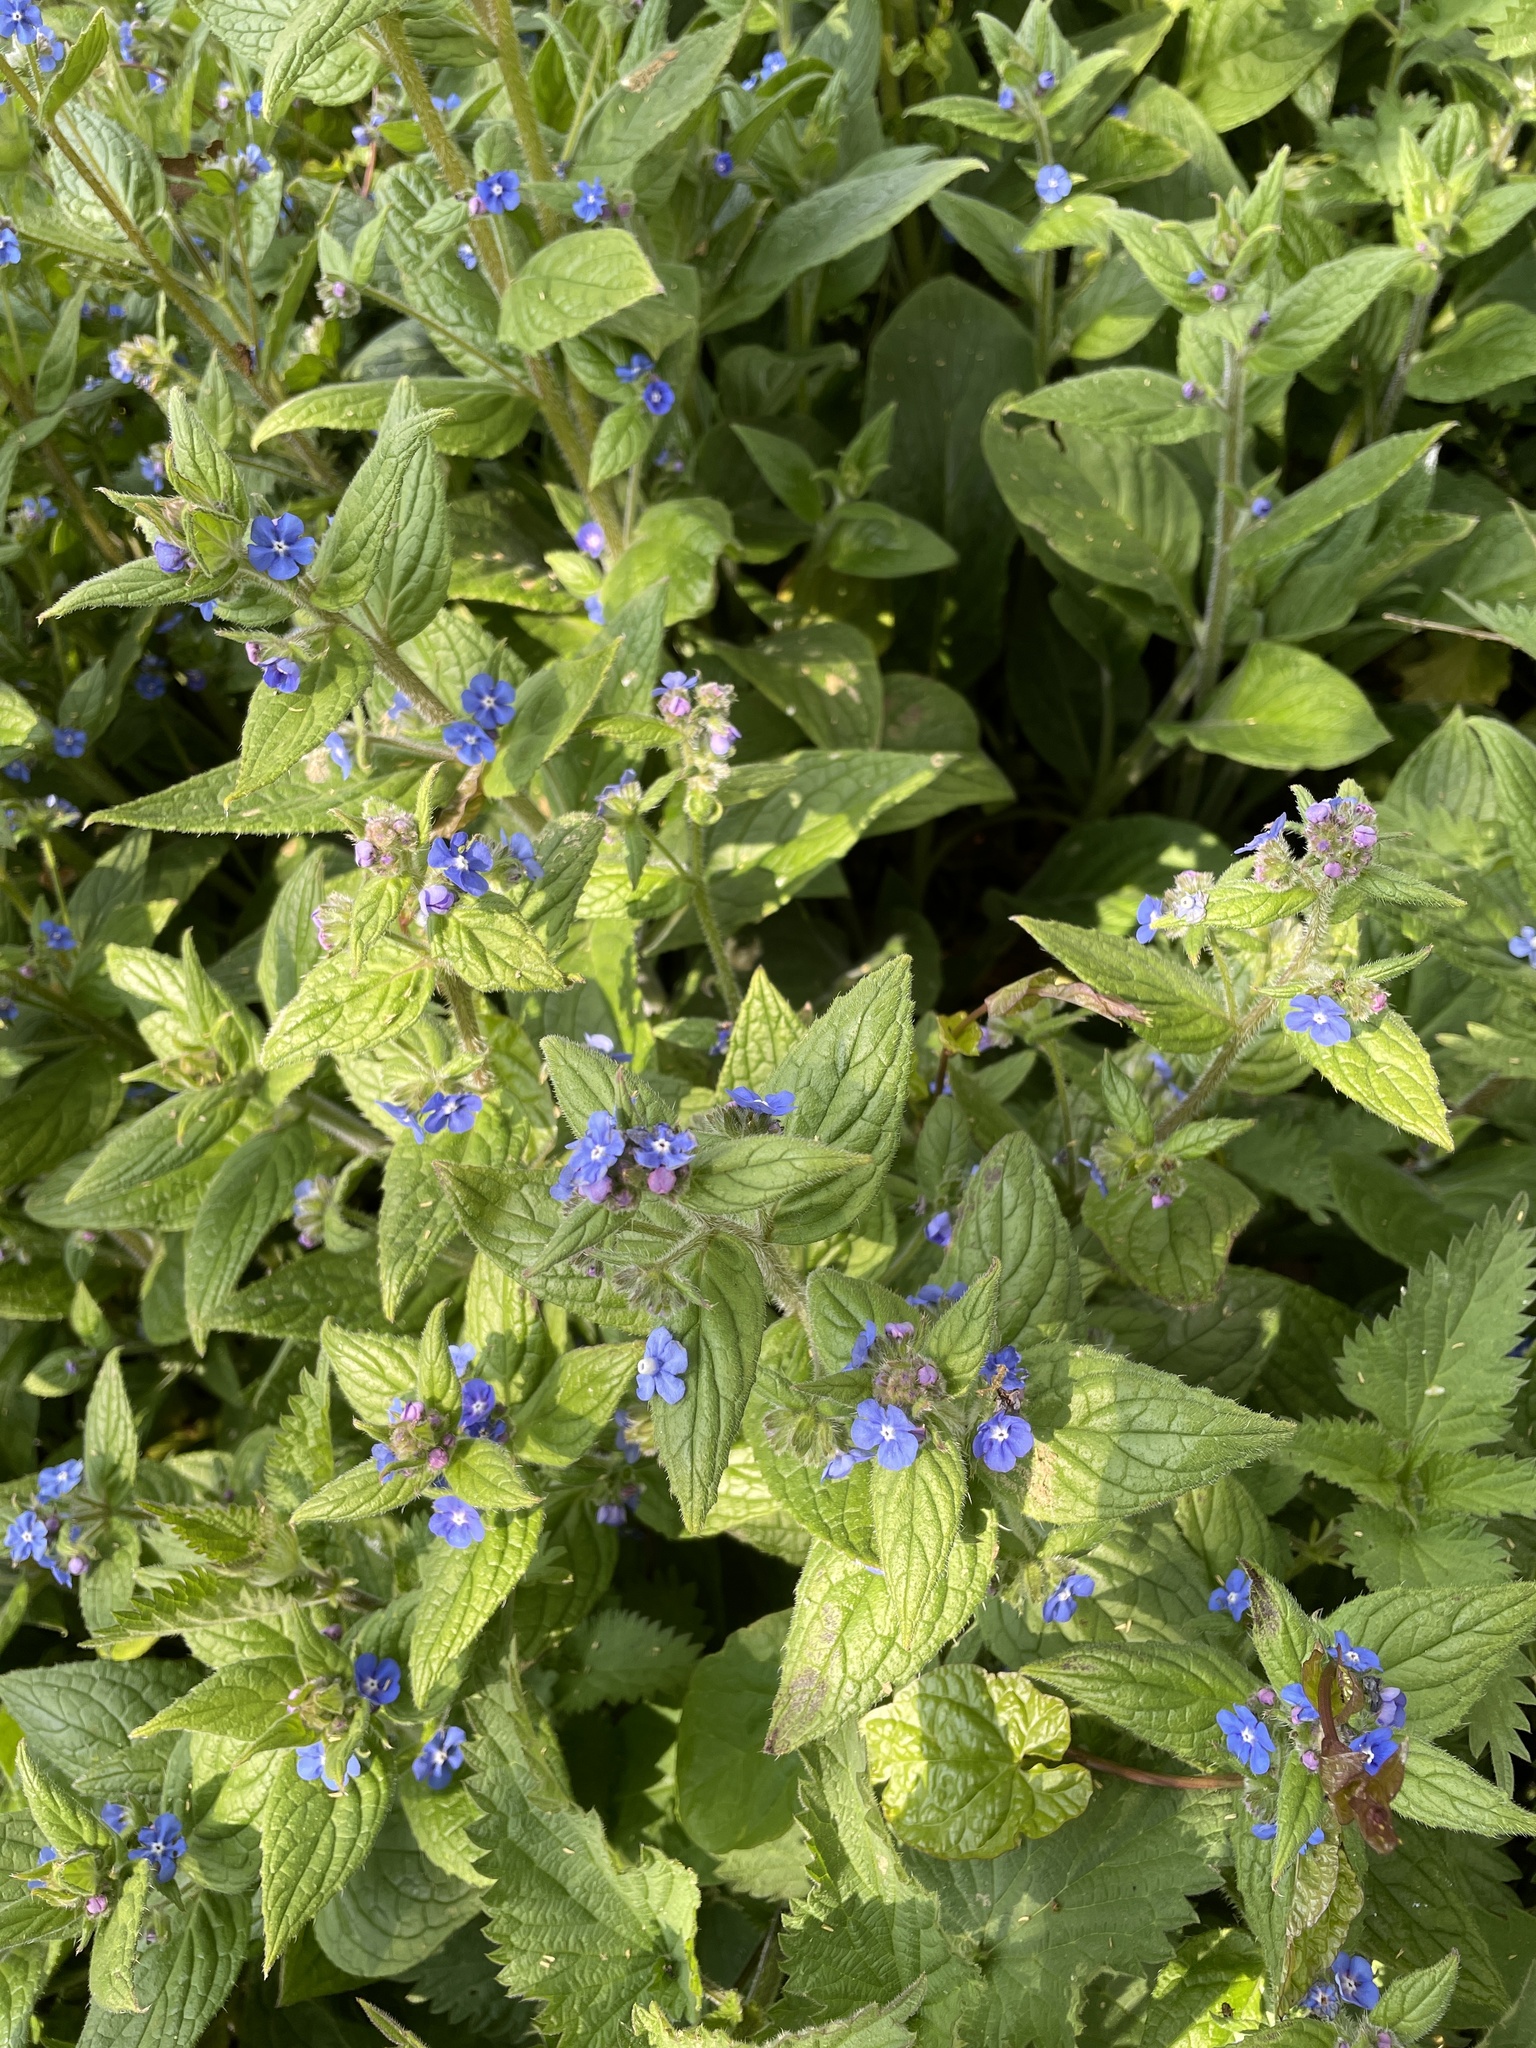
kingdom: Plantae
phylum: Tracheophyta
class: Magnoliopsida
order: Boraginales
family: Boraginaceae
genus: Pentaglottis
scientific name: Pentaglottis sempervirens
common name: Green alkanet
